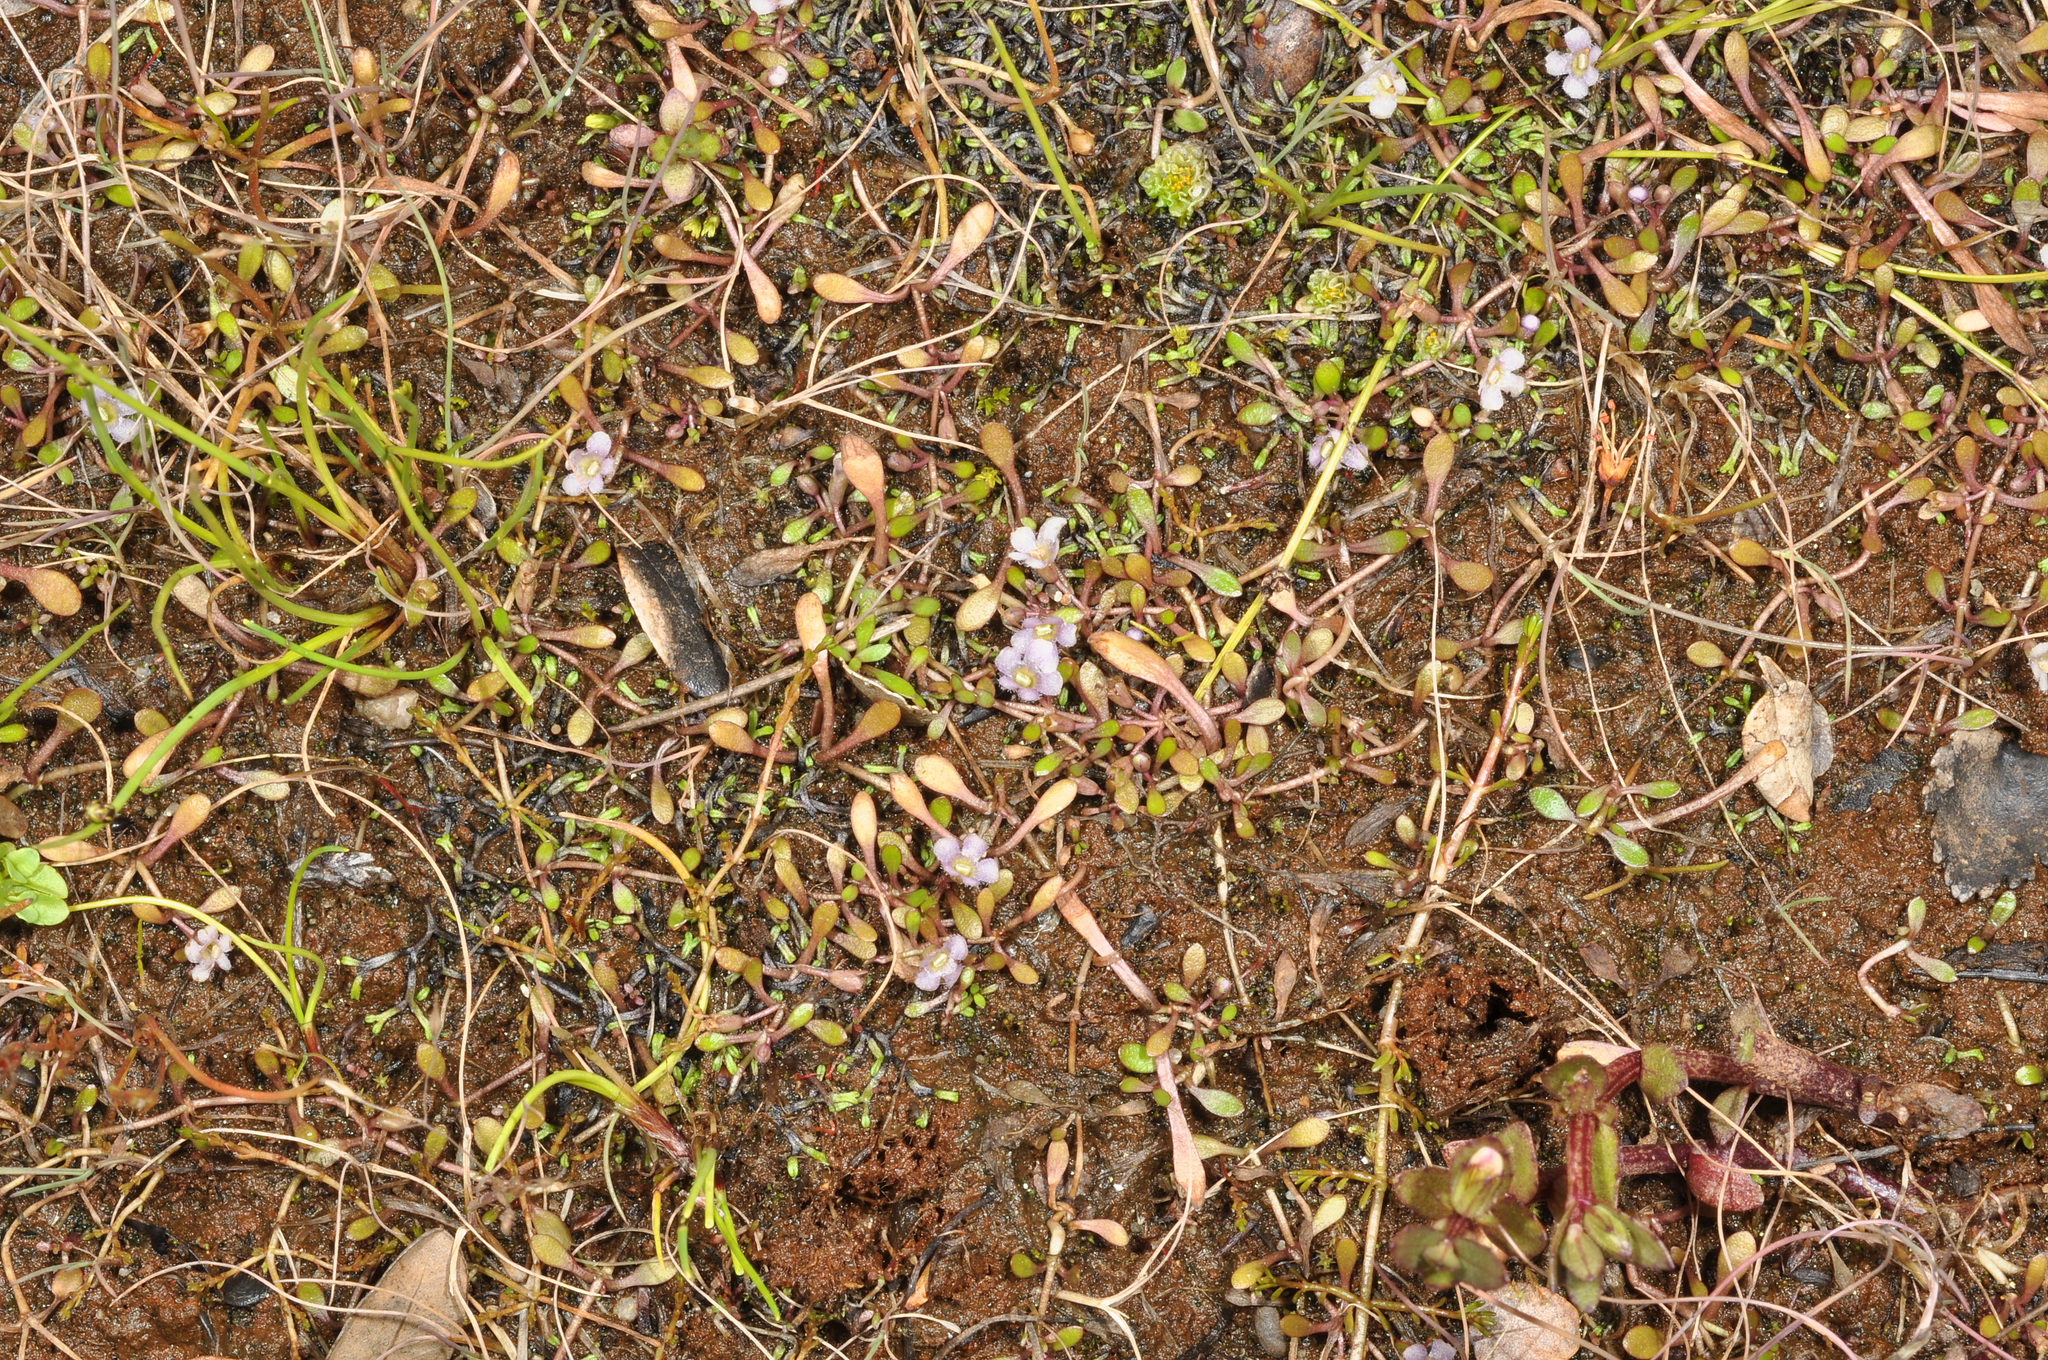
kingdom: Plantae
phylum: Tracheophyta
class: Magnoliopsida
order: Lamiales
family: Phrymaceae
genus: Glossostigma
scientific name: Glossostigma elatinoides
